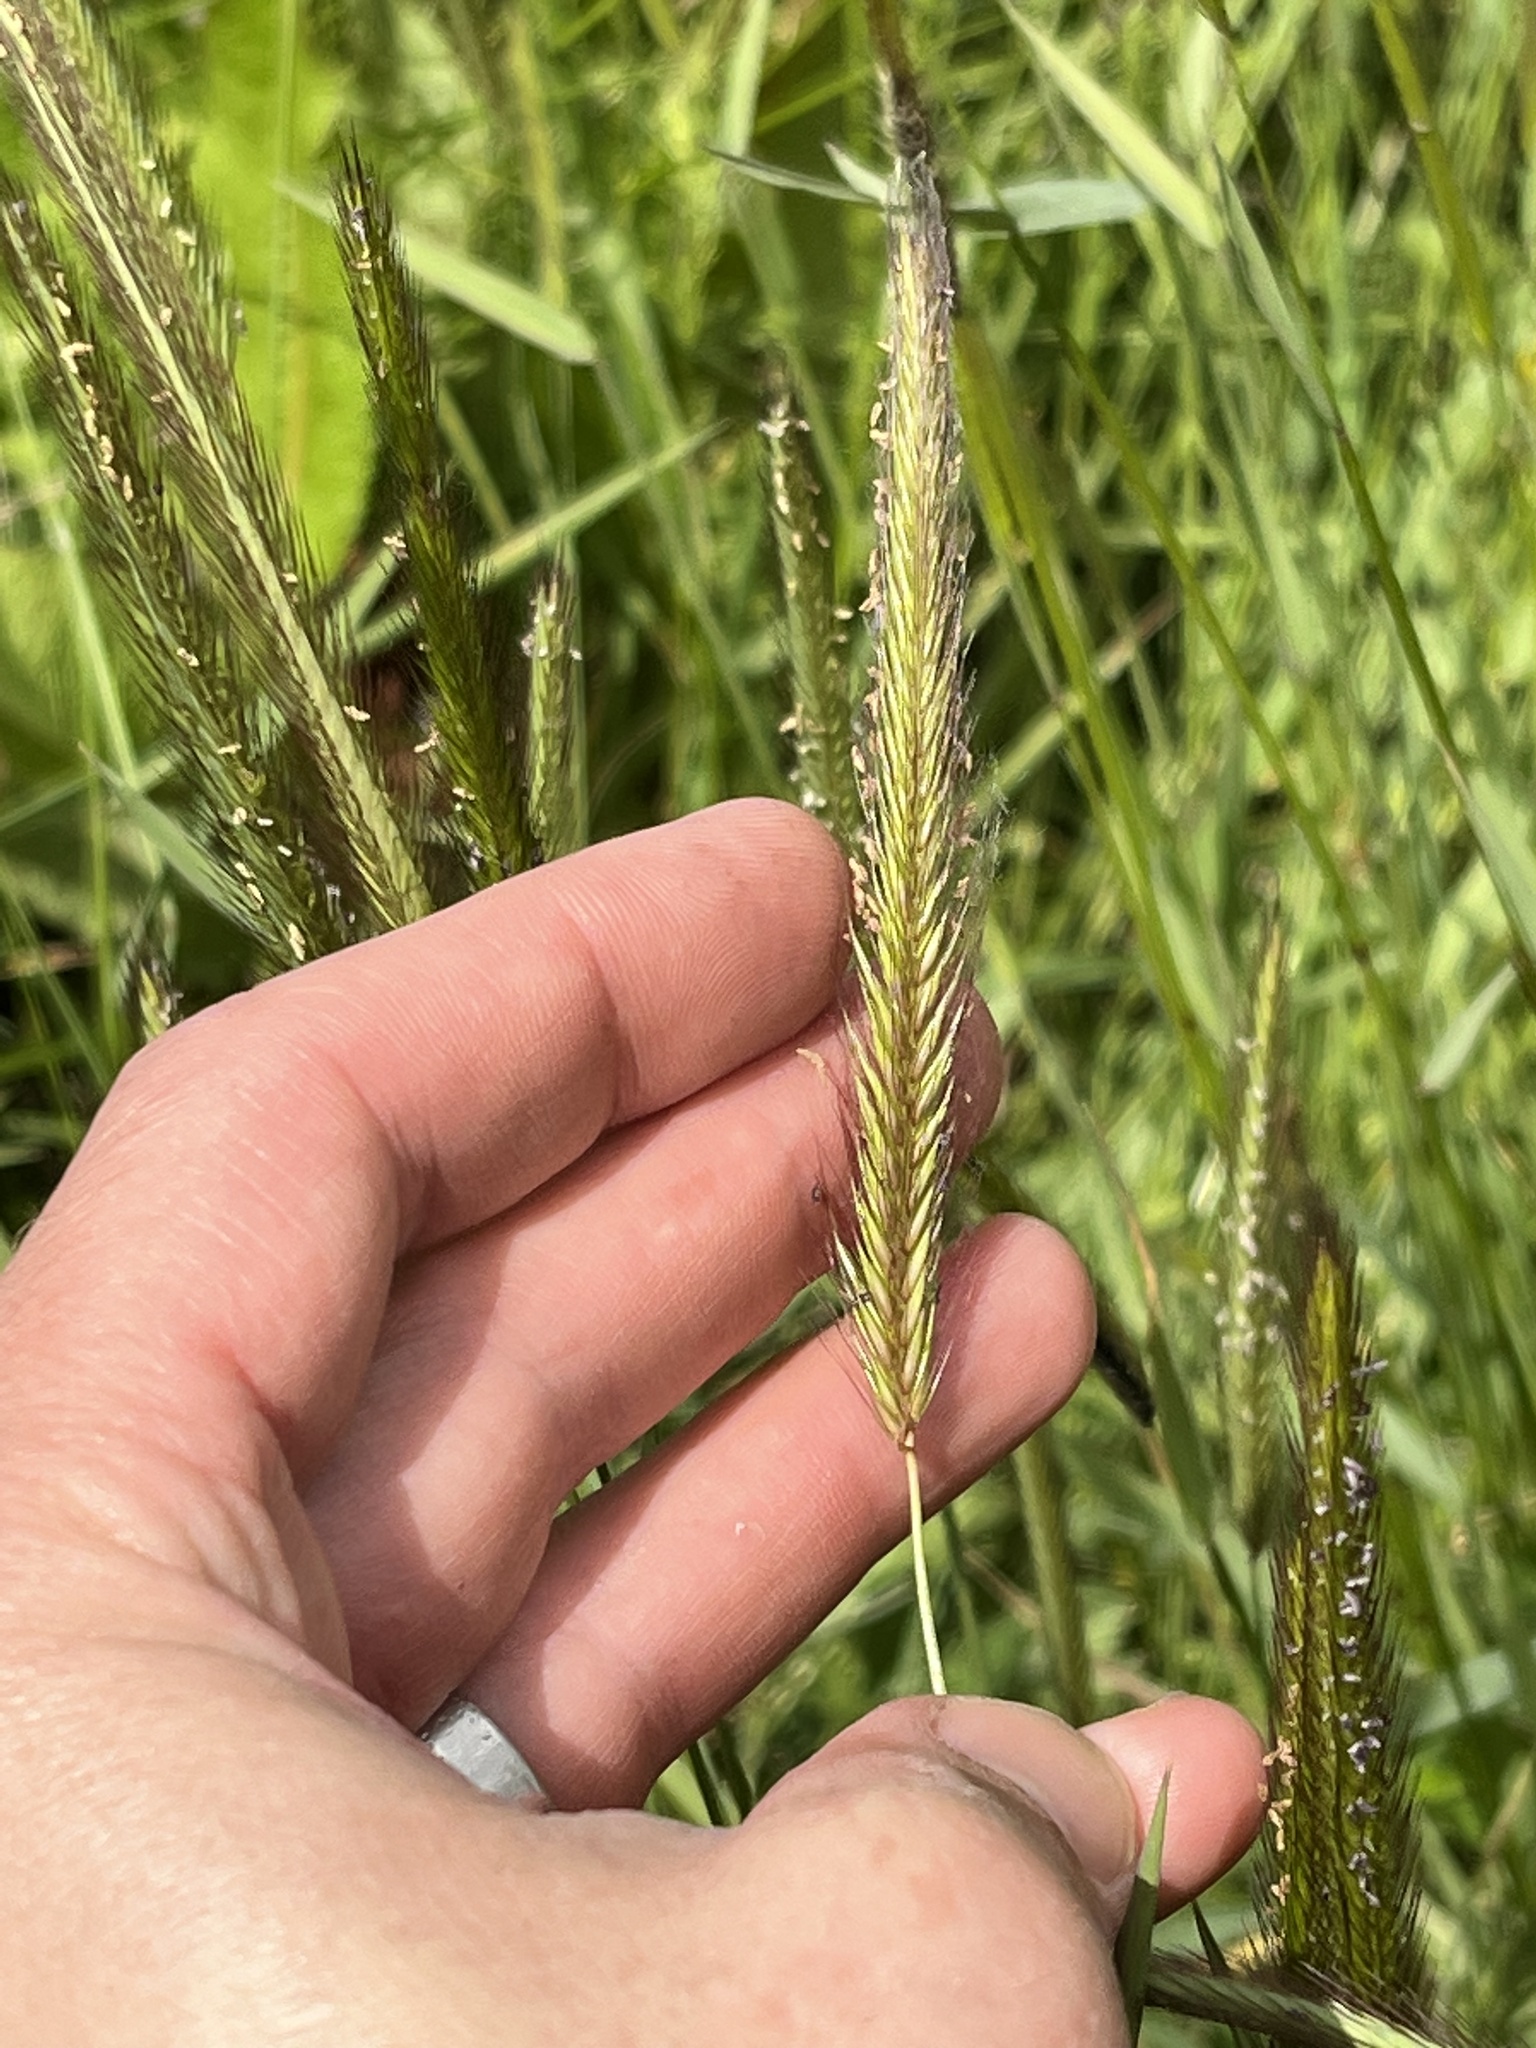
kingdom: Plantae
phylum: Tracheophyta
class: Liliopsida
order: Poales
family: Poaceae
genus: Hordeum
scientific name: Hordeum brachyantherum
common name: Meadow barley
